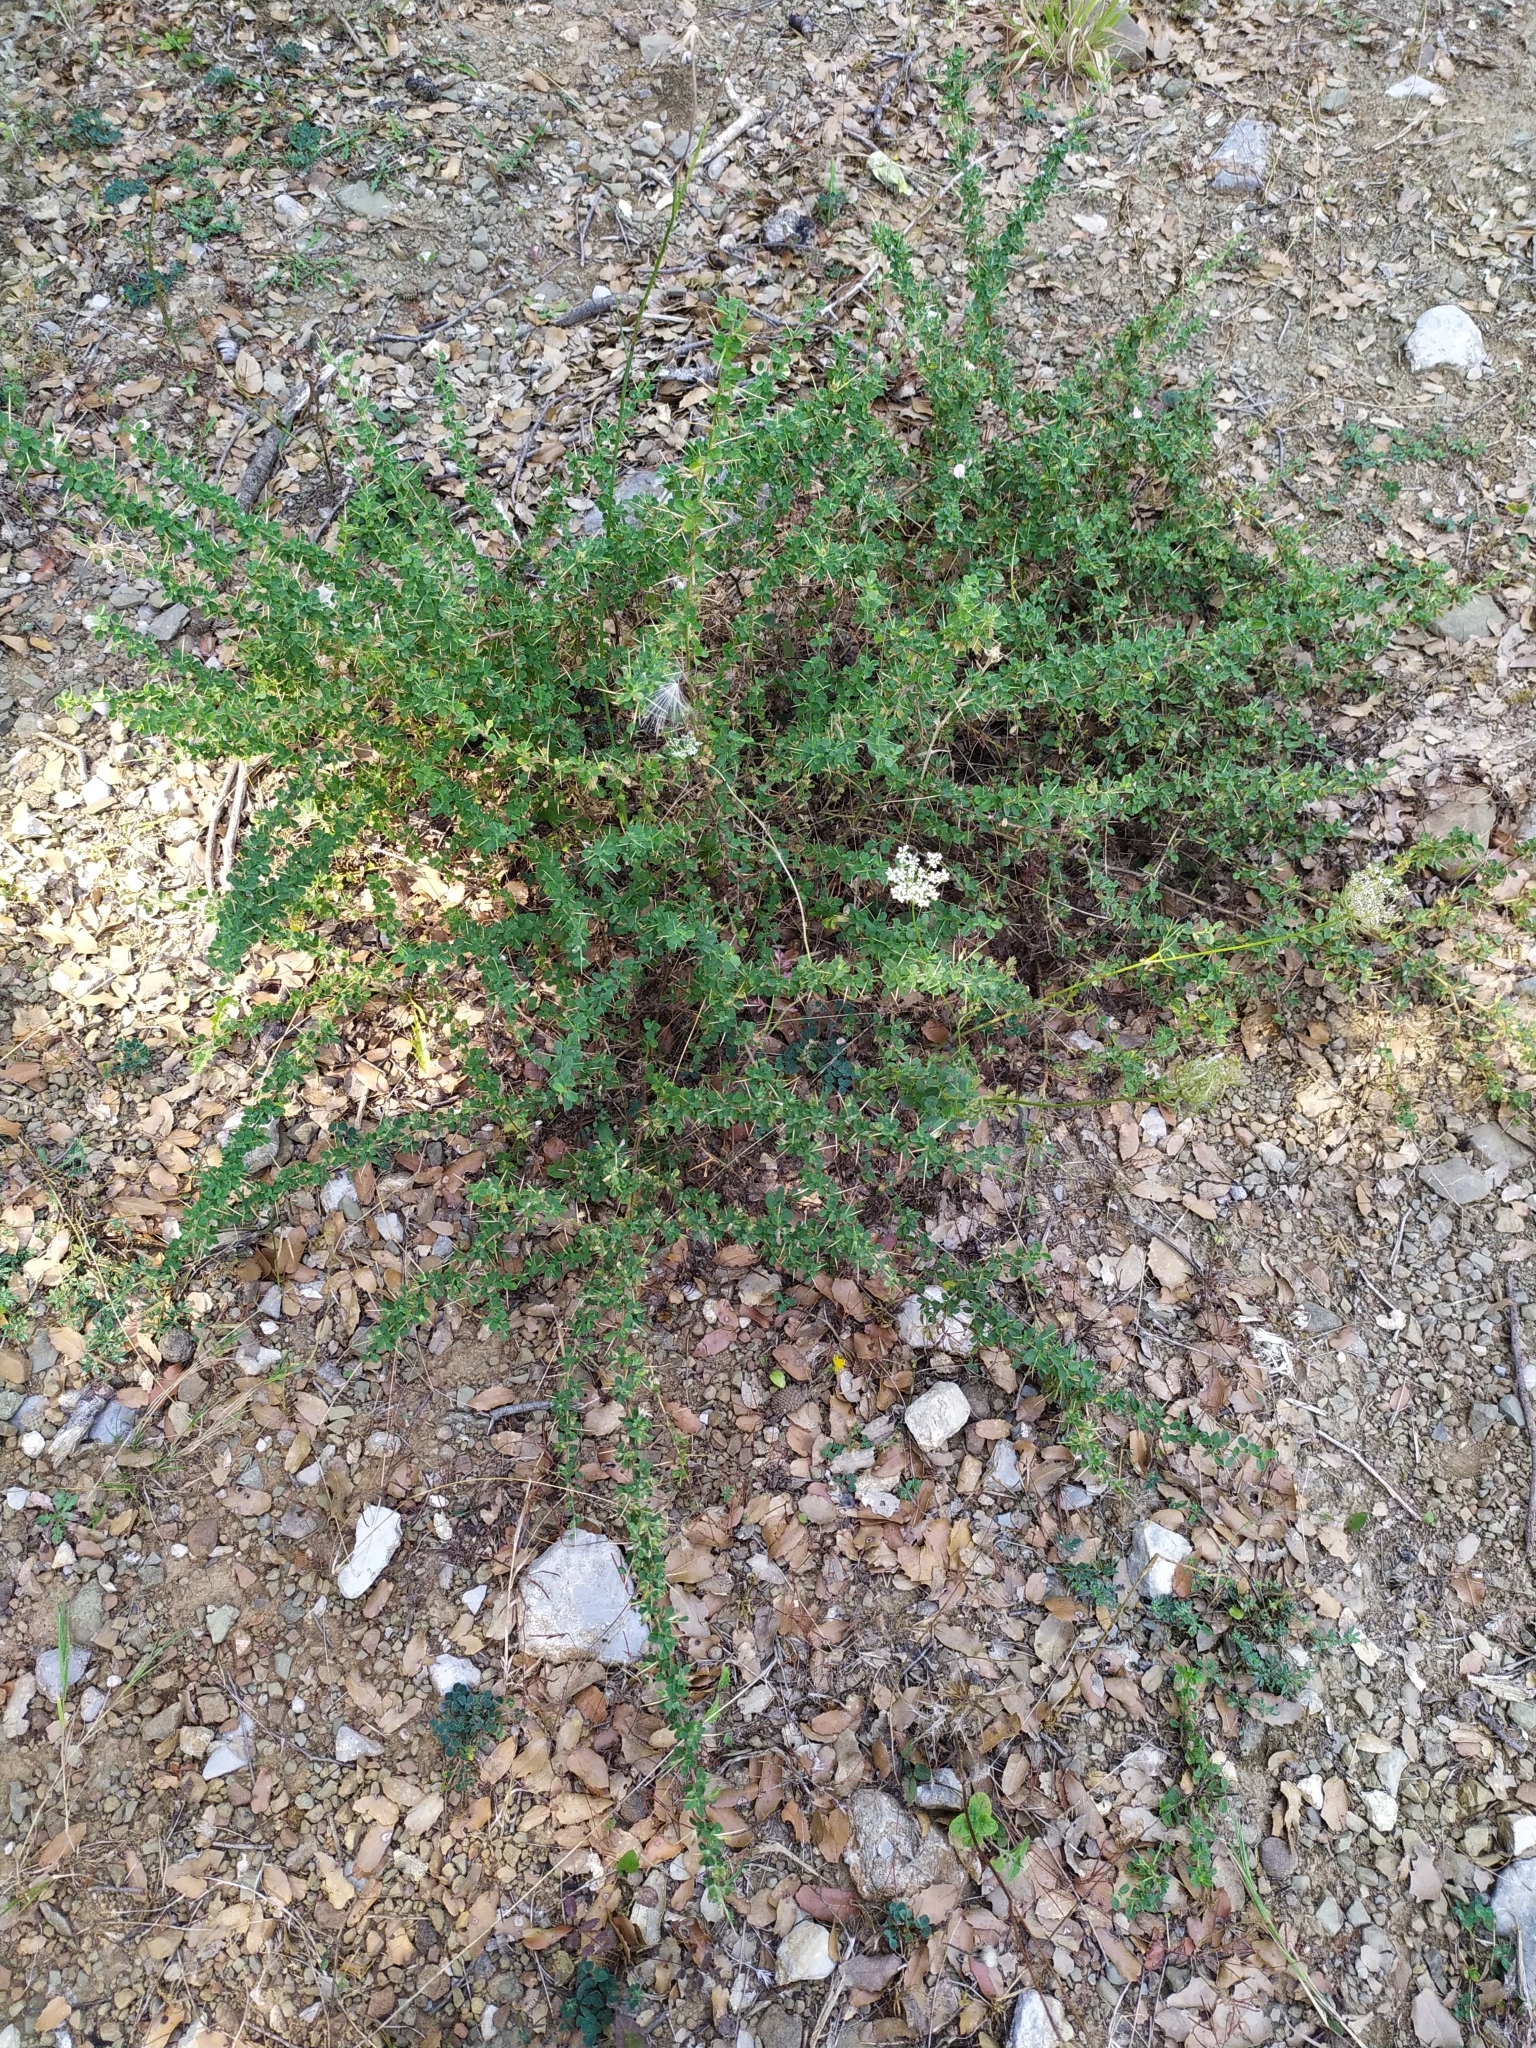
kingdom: Plantae
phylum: Tracheophyta
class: Magnoliopsida
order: Fabales
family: Fabaceae
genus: Ononis
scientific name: Ononis spinosa
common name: Spiny restharrow
